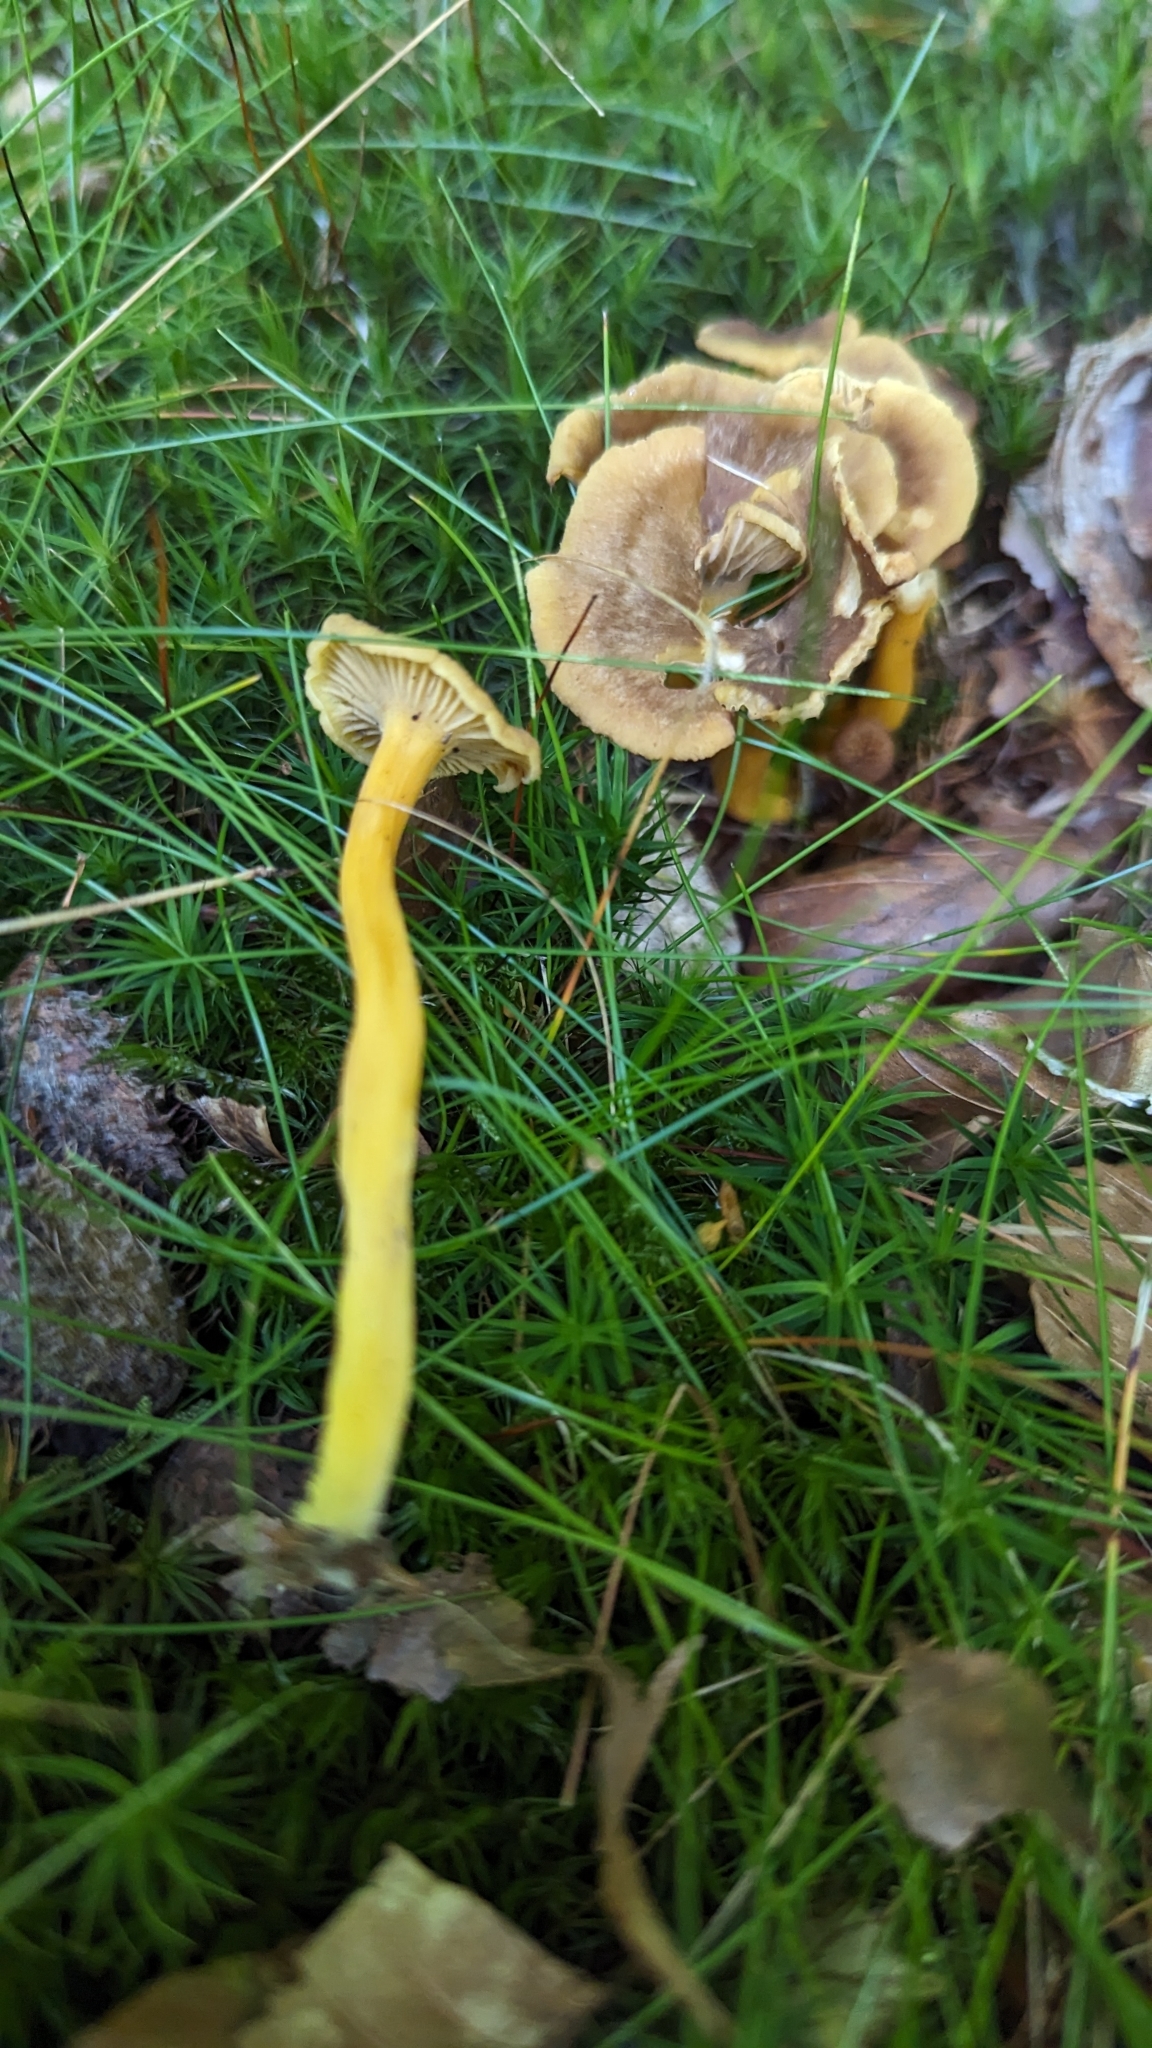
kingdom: Fungi
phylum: Basidiomycota
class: Agaricomycetes
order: Cantharellales
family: Hydnaceae
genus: Craterellus
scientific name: Craterellus tubaeformis
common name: Yellowfoot
